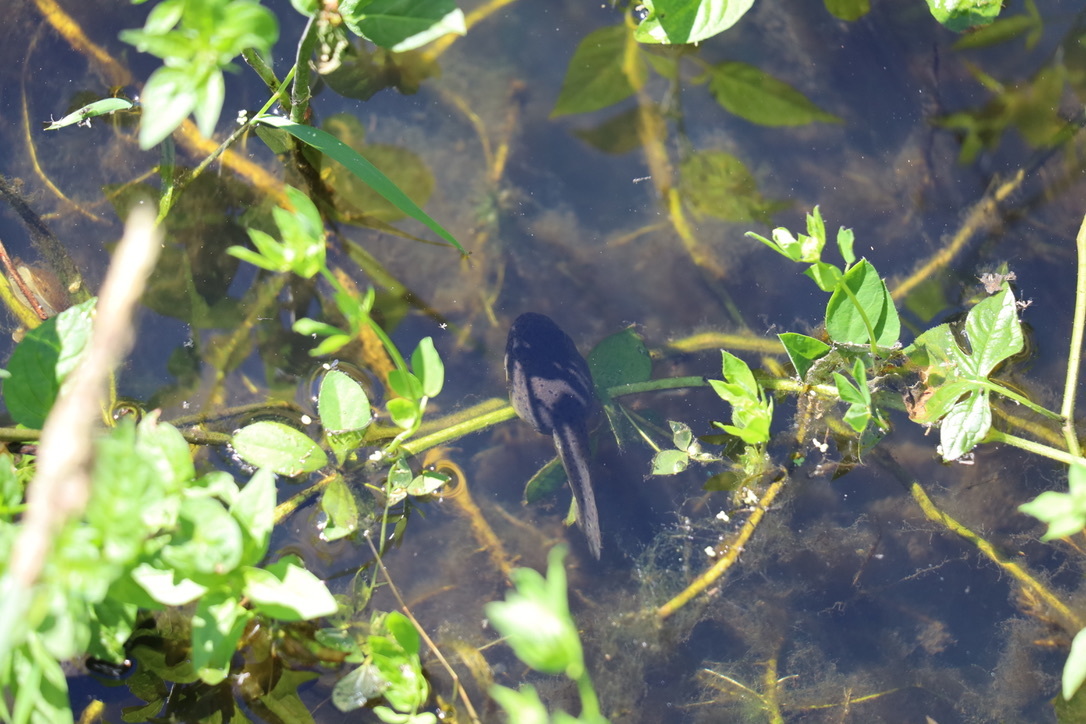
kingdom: Animalia
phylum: Chordata
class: Amphibia
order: Anura
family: Ranidae
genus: Lithobates
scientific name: Lithobates catesbeianus
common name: American bullfrog
